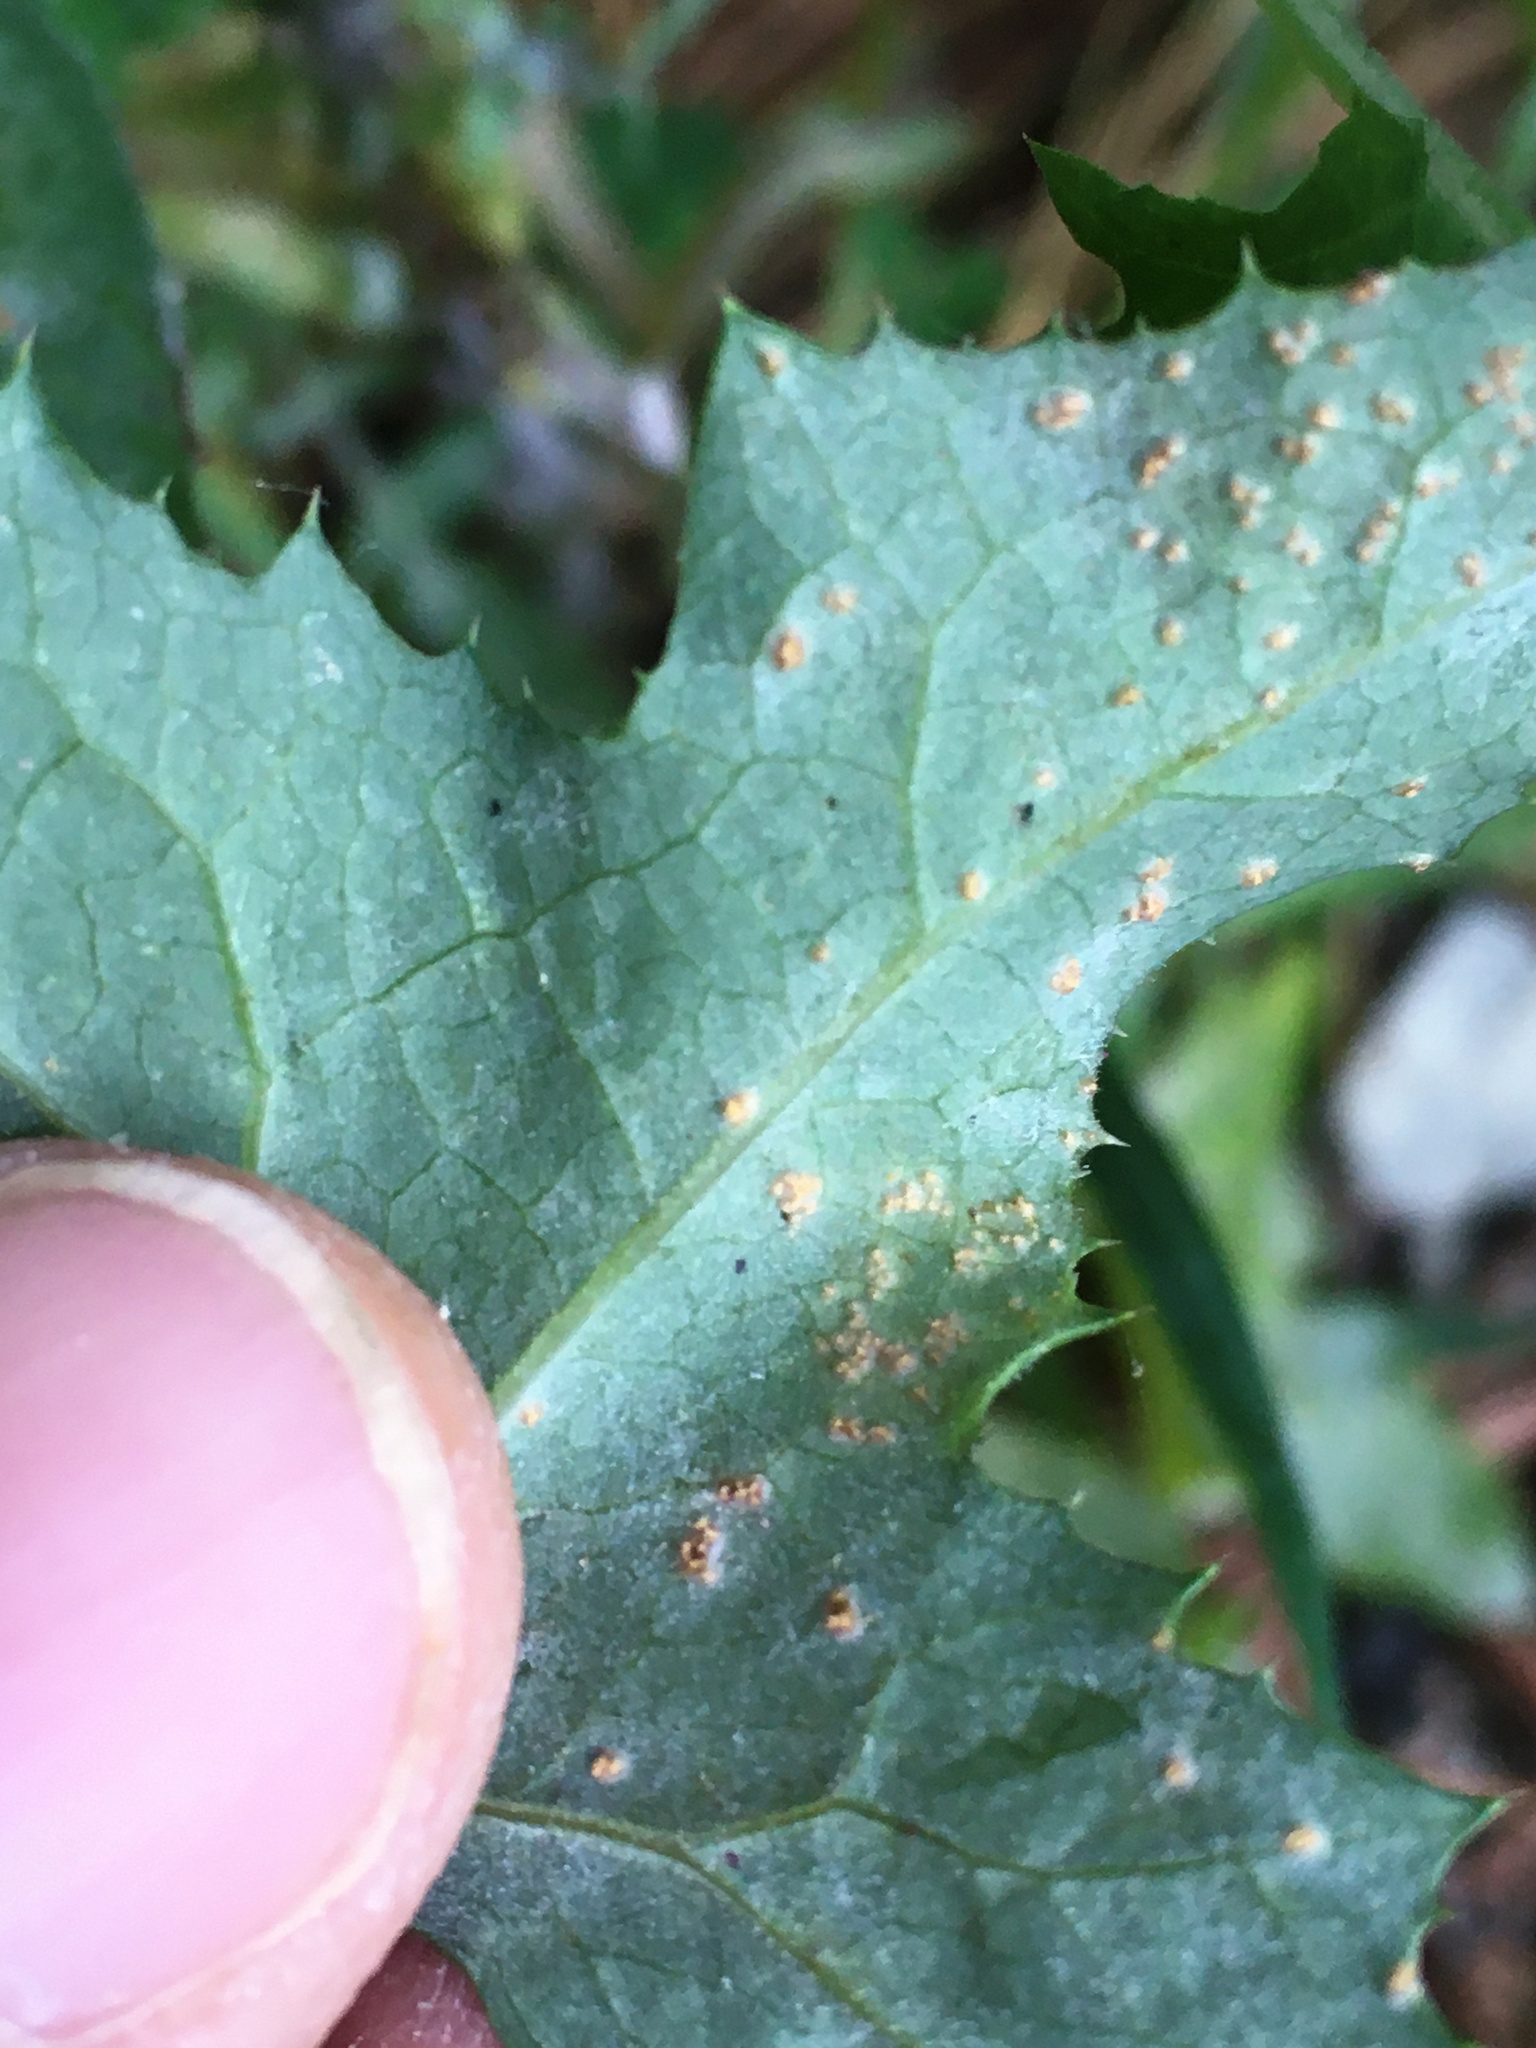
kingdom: Fungi
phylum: Basidiomycota
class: Pucciniomycetes
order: Pucciniales
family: Pucciniaceae
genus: Peristemma
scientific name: Peristemma pseudosphaeria
